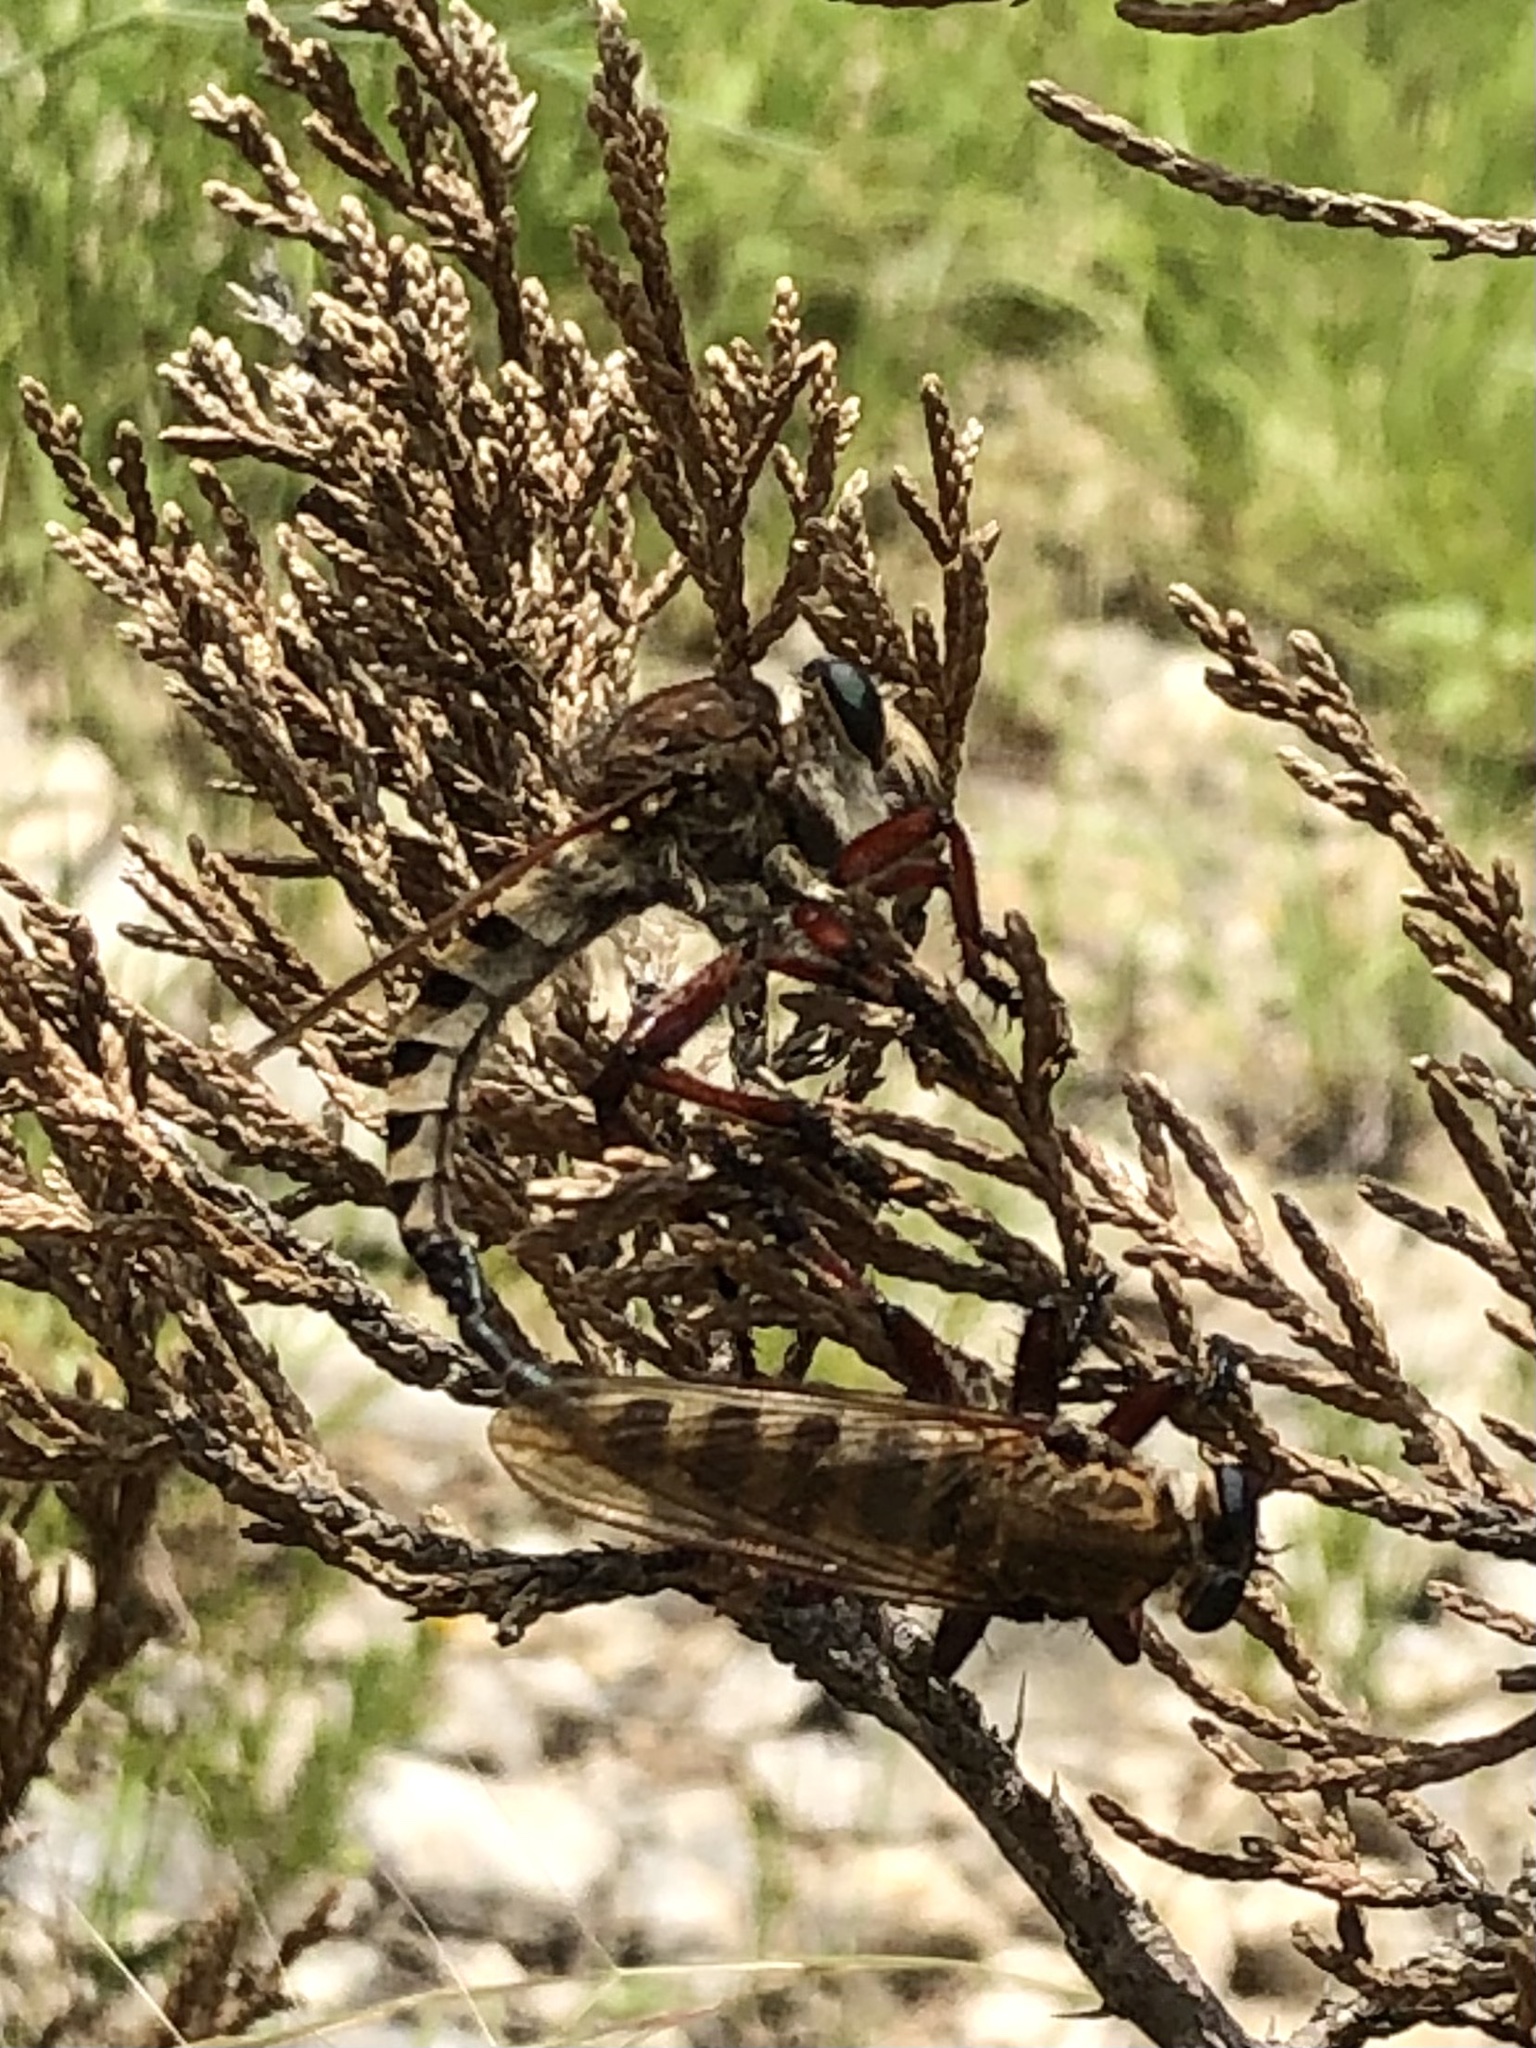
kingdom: Animalia
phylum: Arthropoda
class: Insecta
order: Diptera
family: Asilidae
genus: Promachus
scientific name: Promachus hinei
